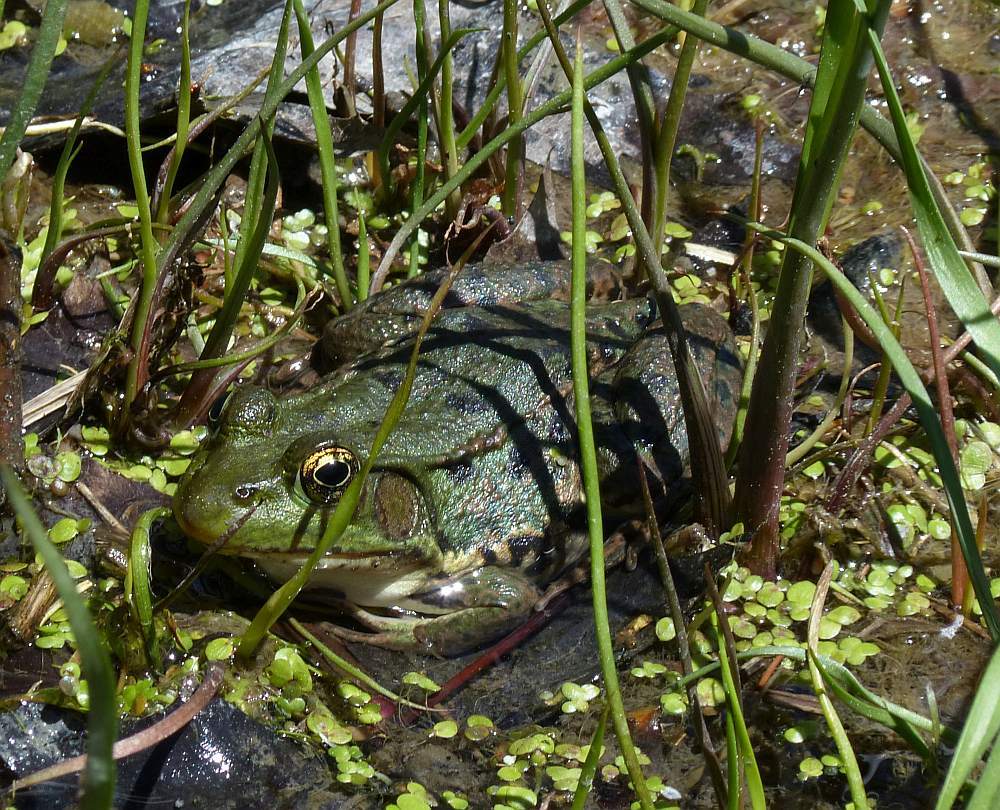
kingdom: Animalia
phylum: Chordata
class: Amphibia
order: Anura
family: Ranidae
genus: Lithobates
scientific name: Lithobates clamitans
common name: Green frog
